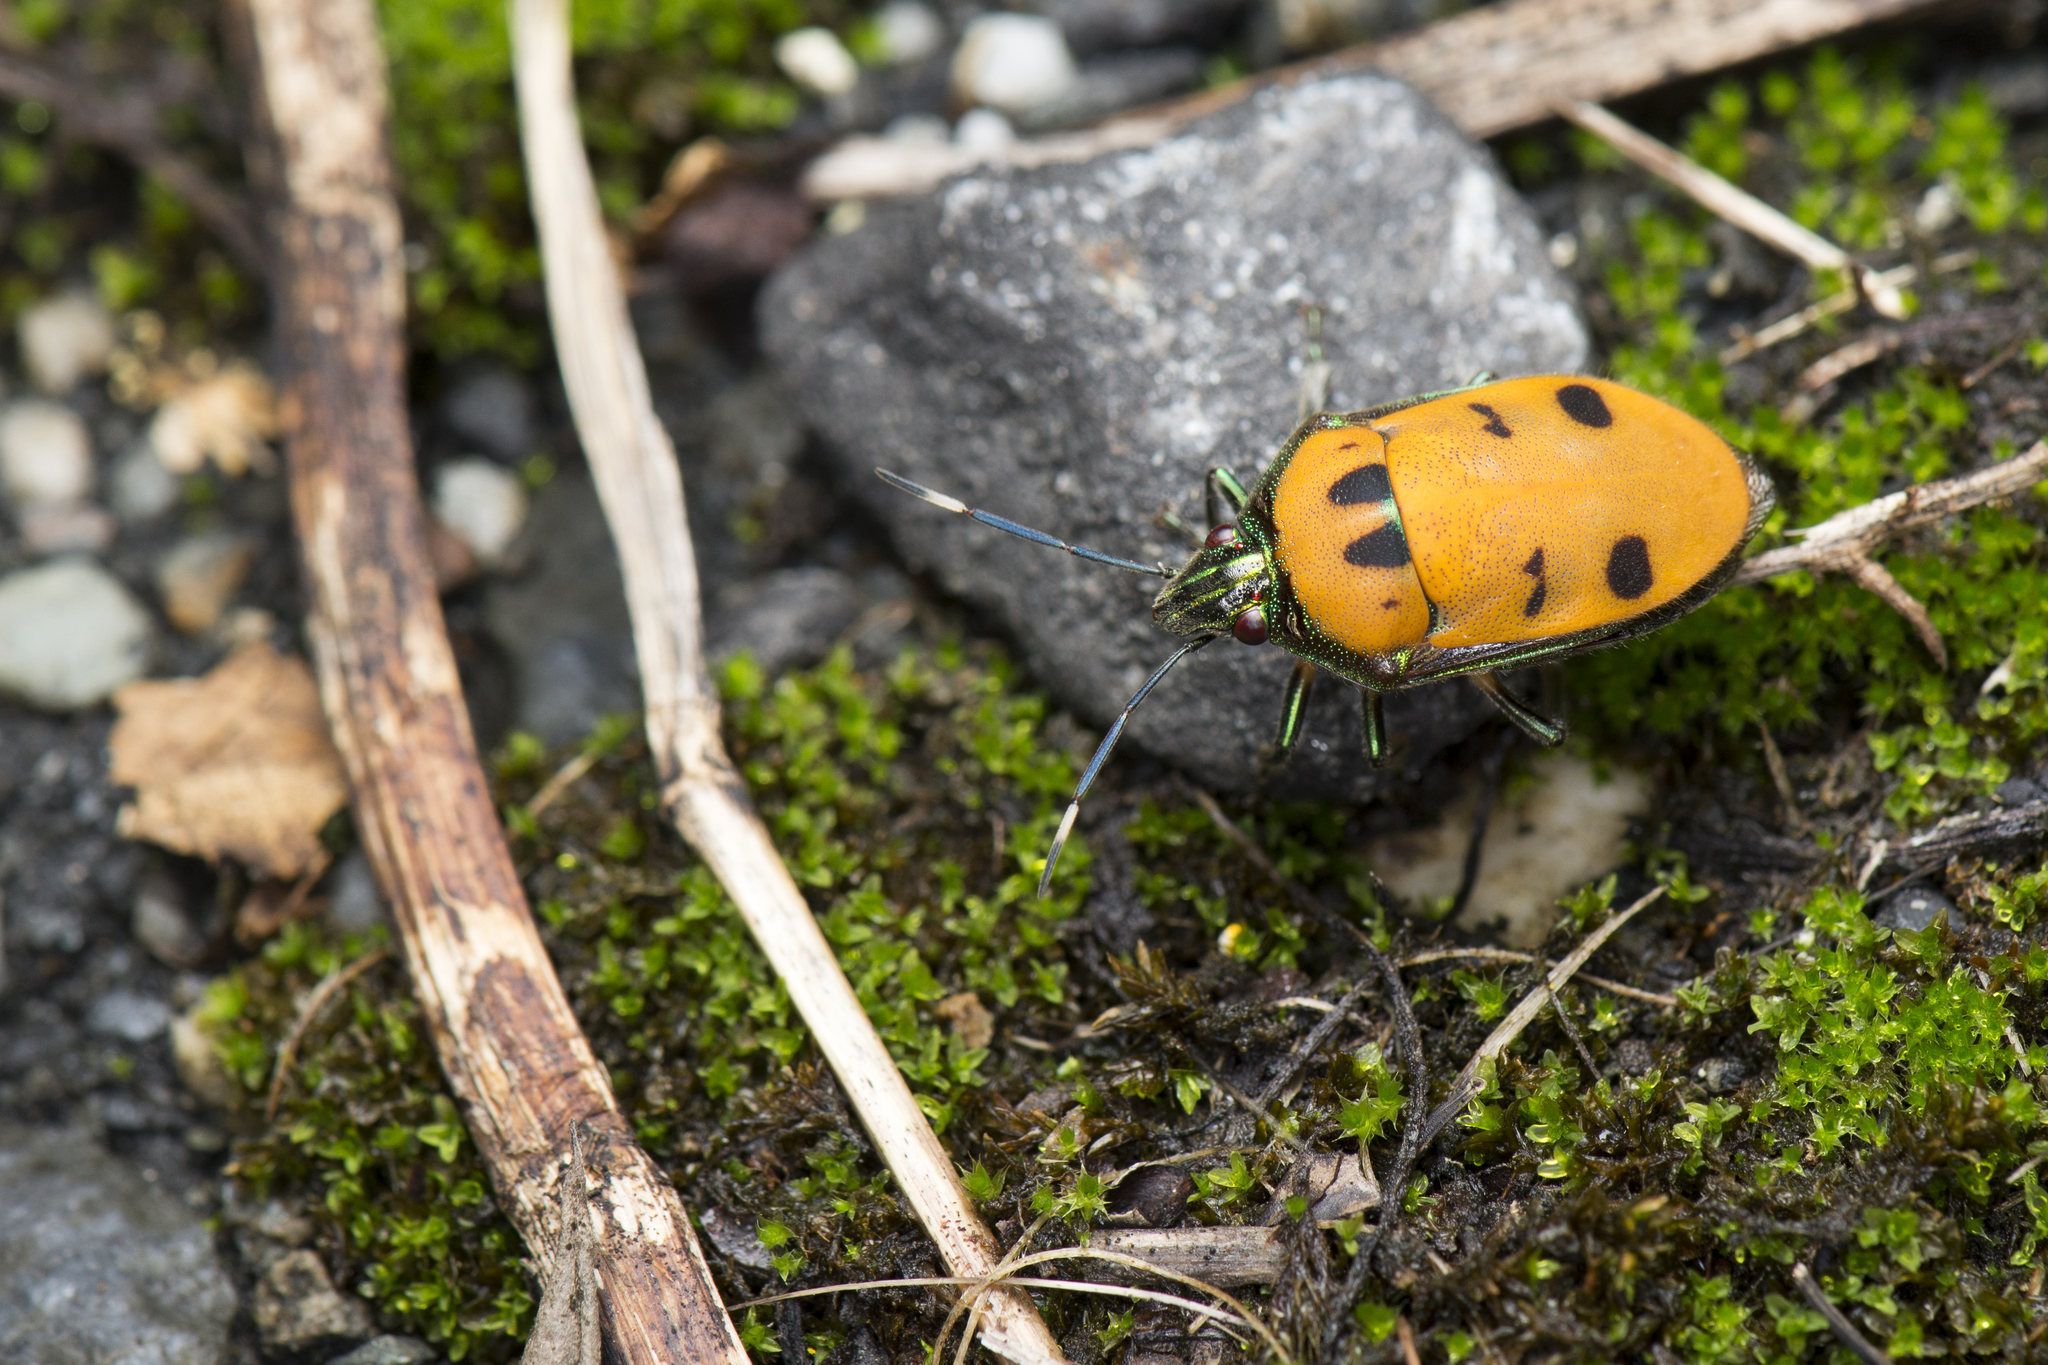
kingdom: Animalia
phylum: Arthropoda
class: Insecta
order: Hemiptera
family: Scutelleridae
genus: Tetrarthria
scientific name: Tetrarthria variegata
